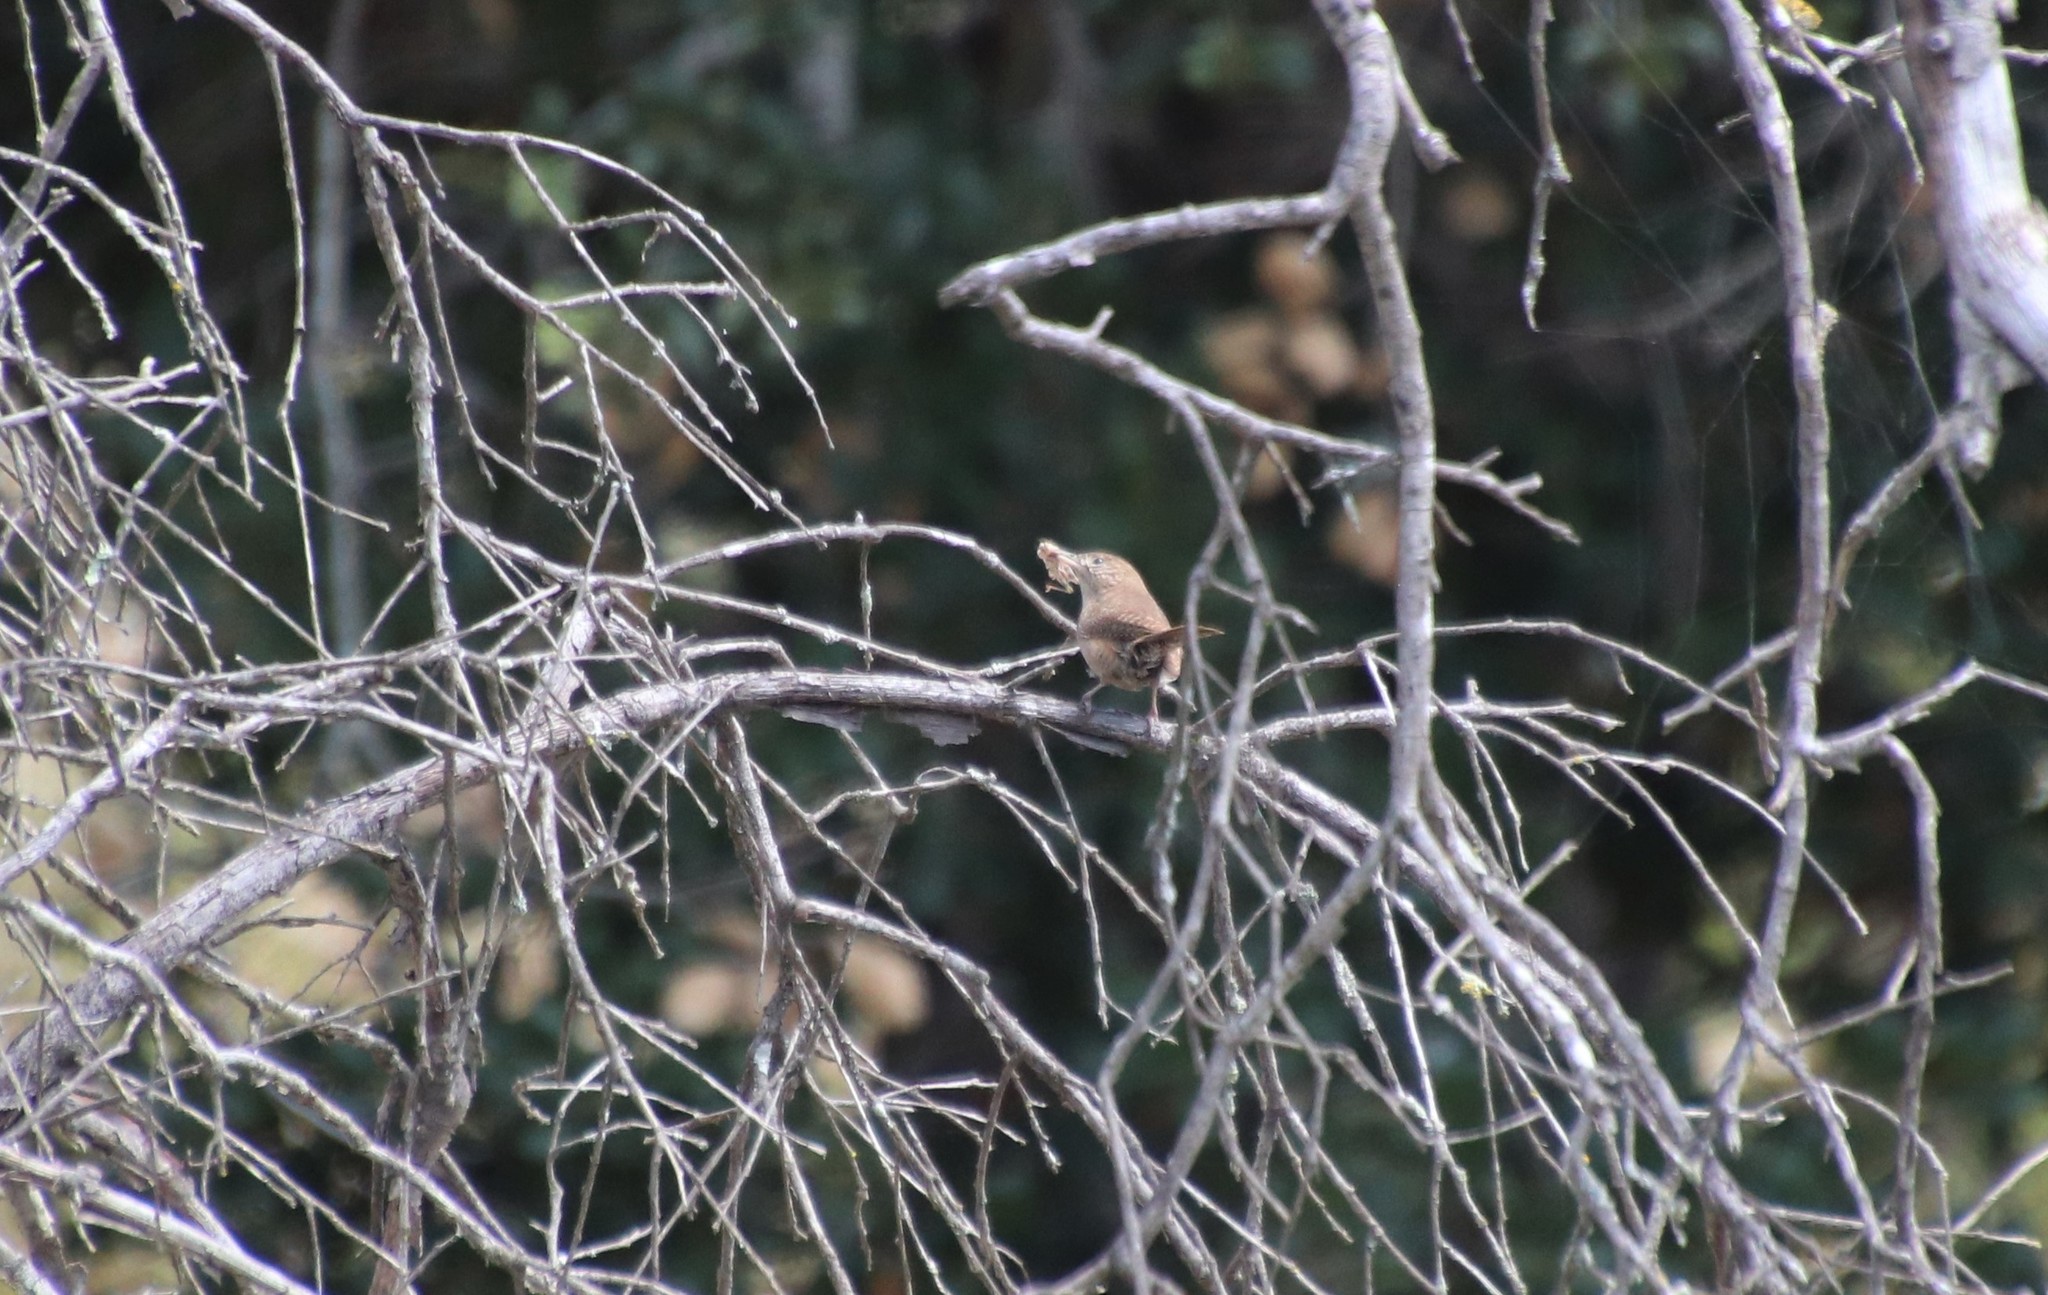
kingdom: Animalia
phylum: Chordata
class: Aves
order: Passeriformes
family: Troglodytidae
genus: Troglodytes
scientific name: Troglodytes aedon
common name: House wren
